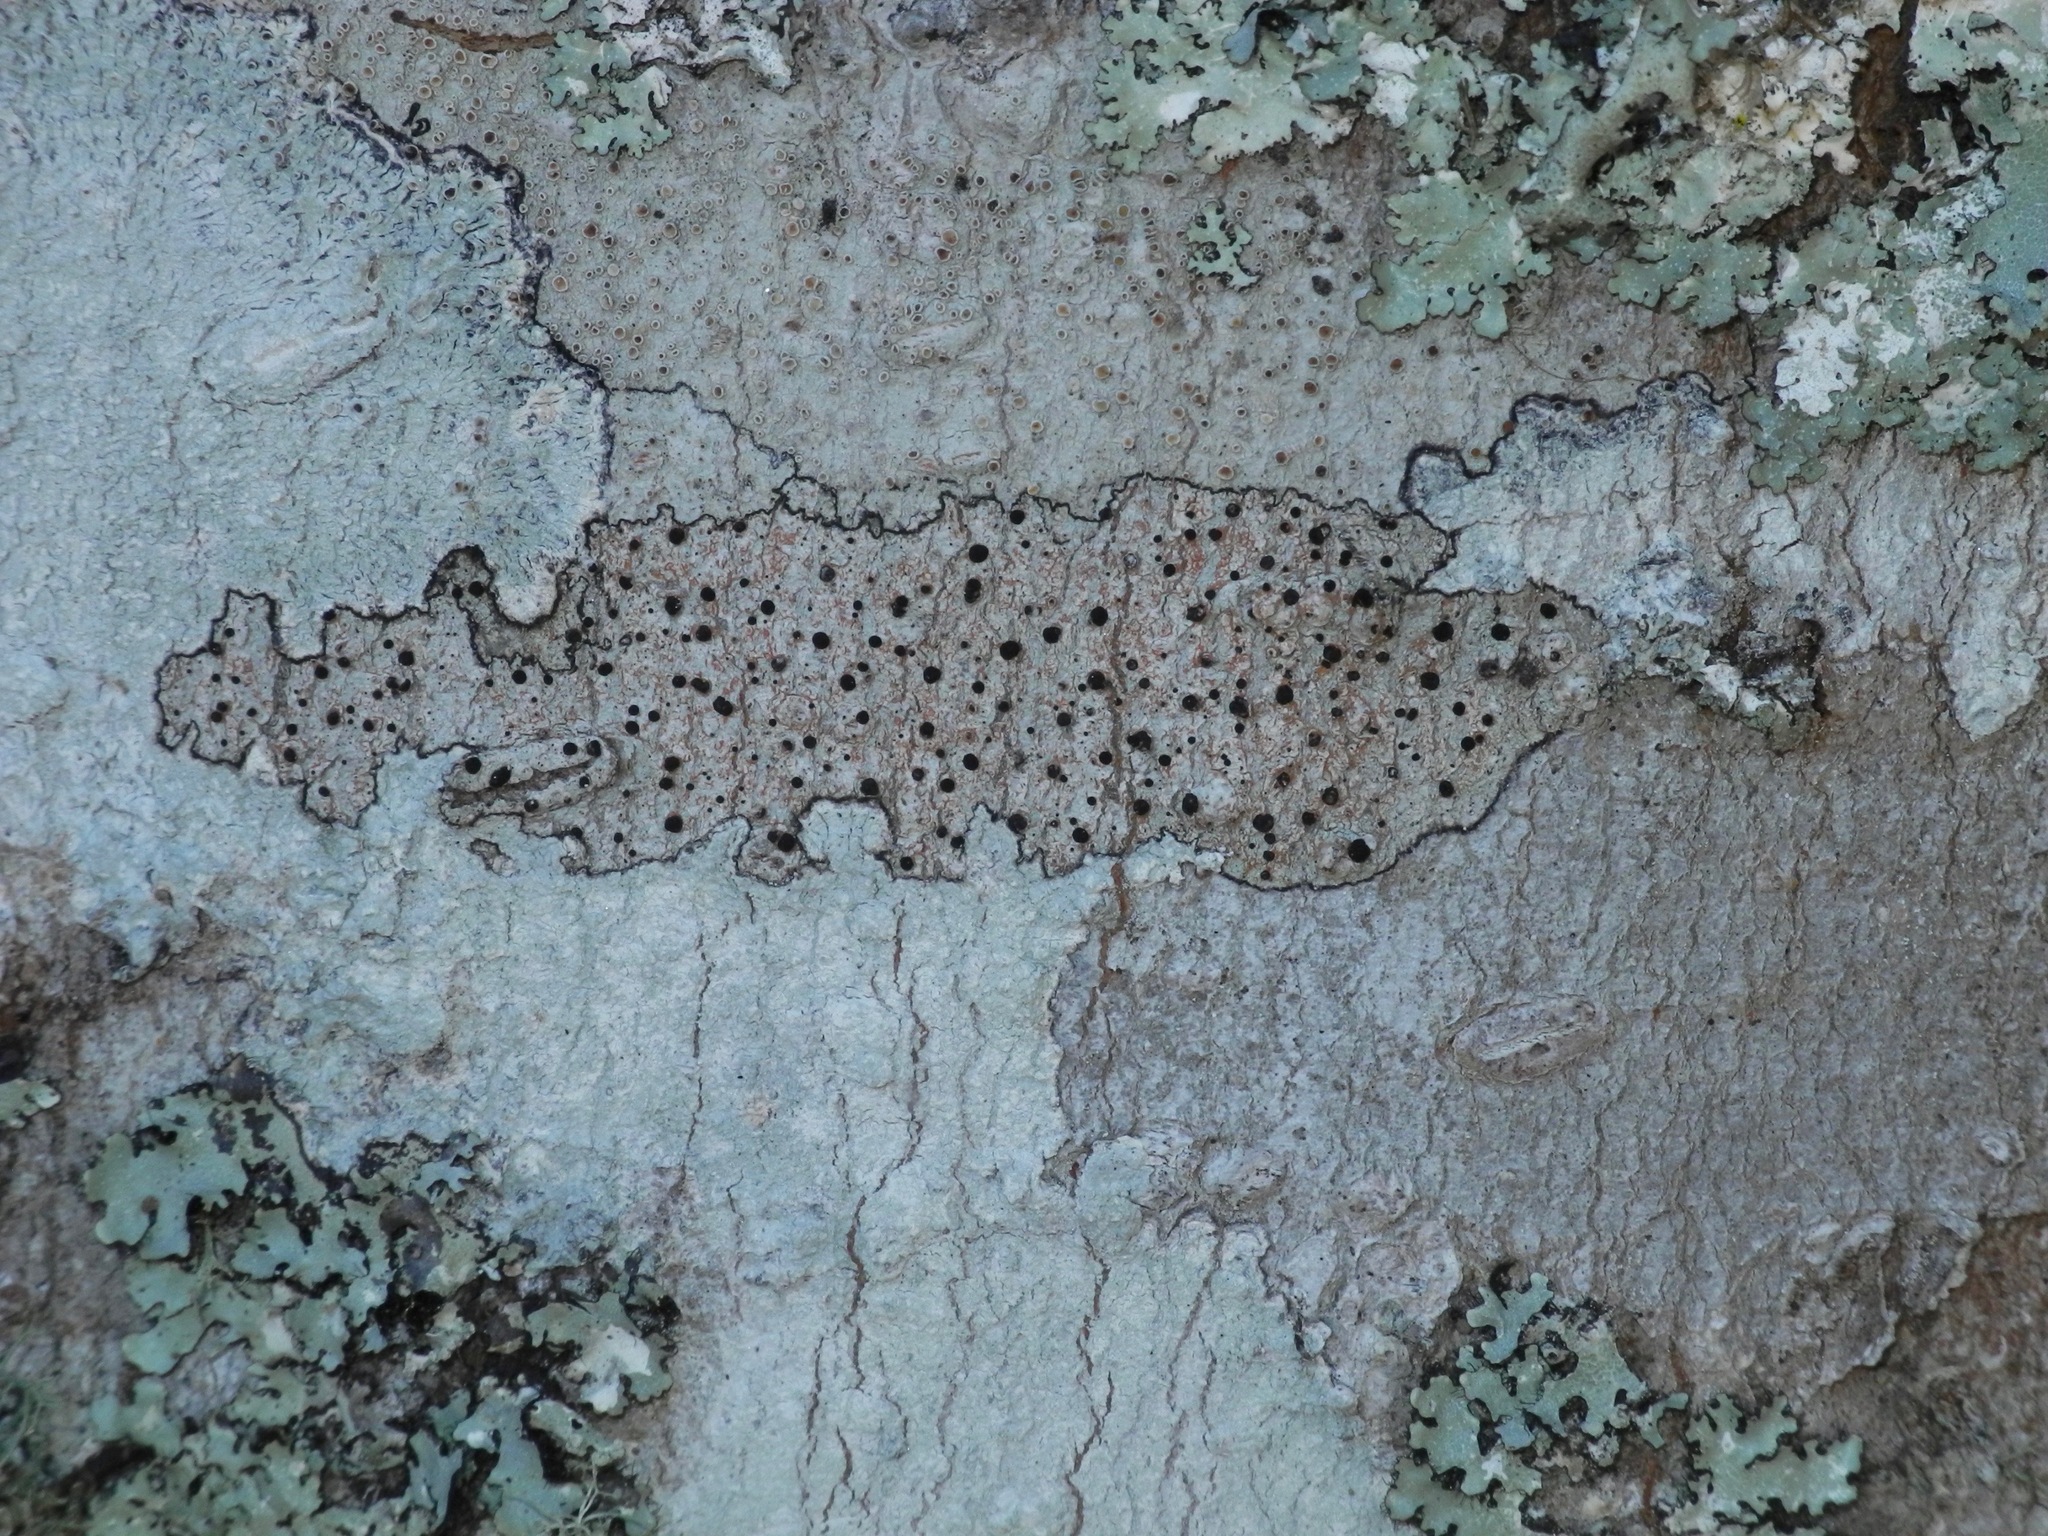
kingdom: Fungi
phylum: Ascomycota
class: Lecanoromycetes
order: Caliciales
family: Caliciaceae
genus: Buellia
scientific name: Buellia erubescens
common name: Common button lichen
